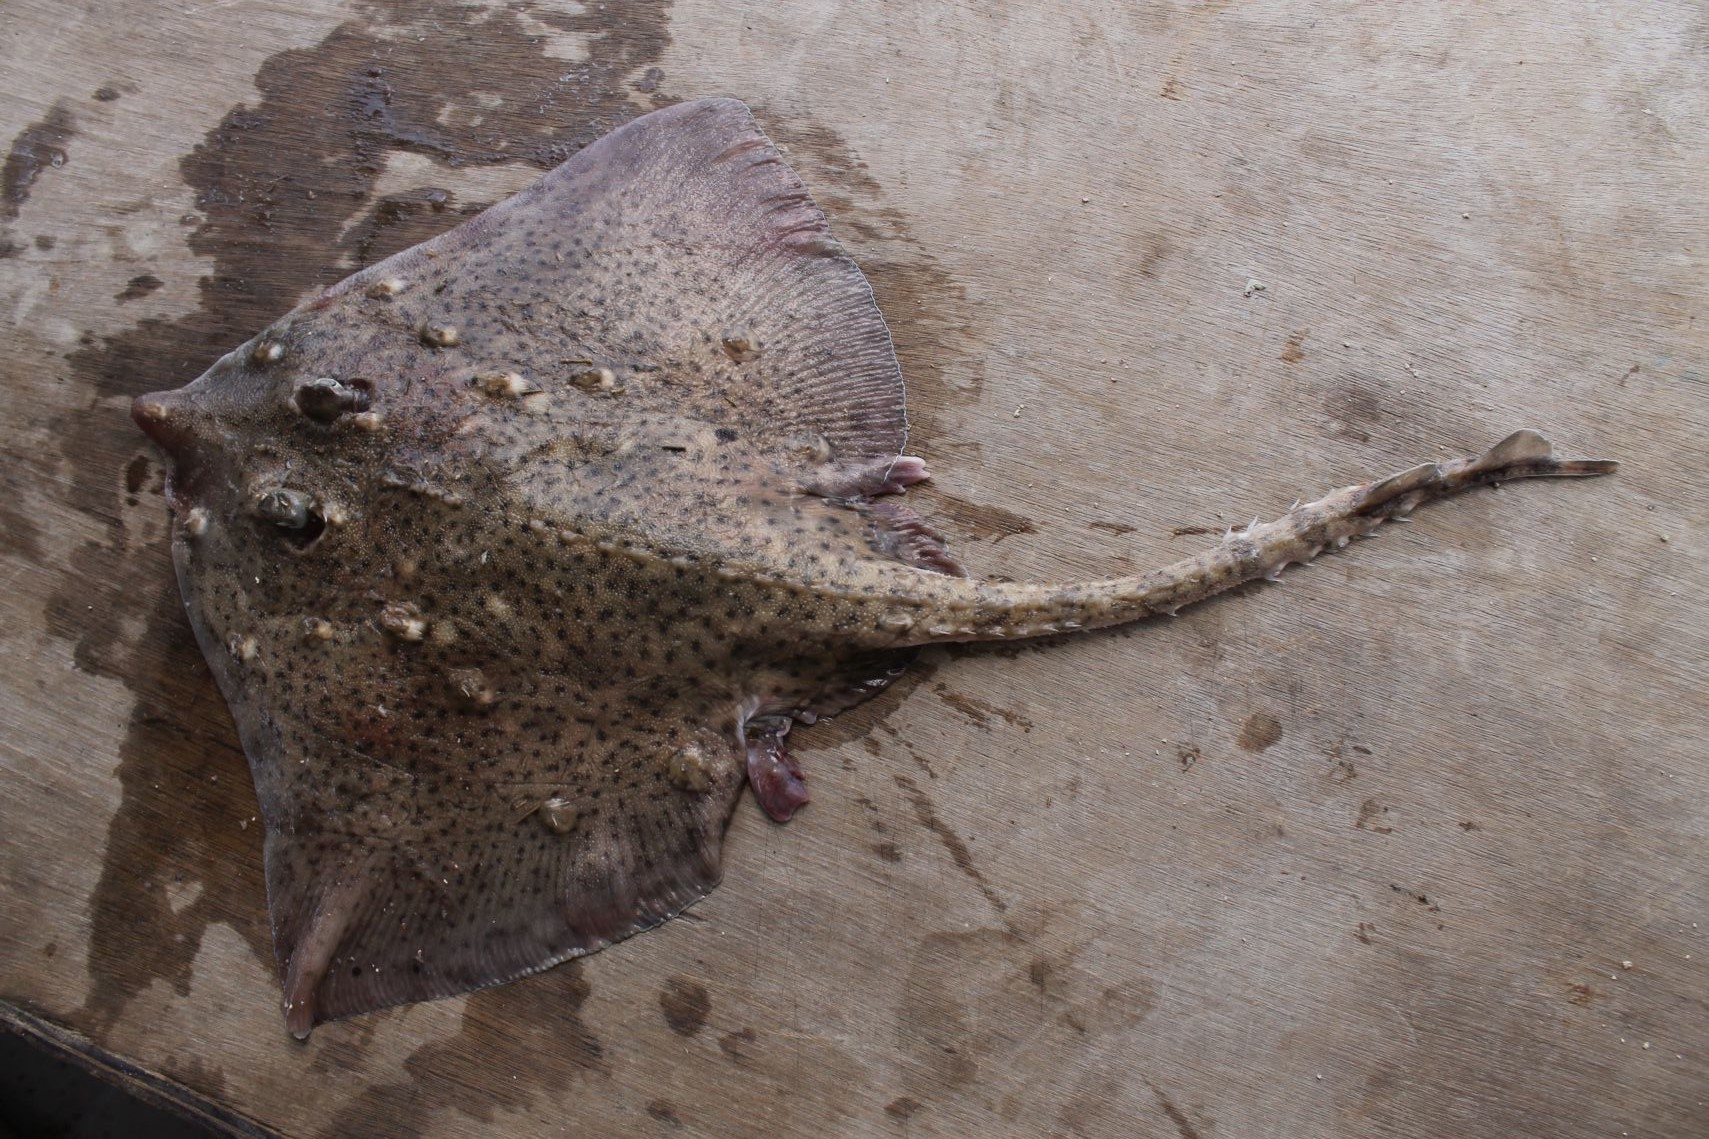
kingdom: Animalia
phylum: Chordata
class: Elasmobranchii
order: Rajiformes
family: Rajidae
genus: Raja
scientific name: Raja clavata
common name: Thornback ray
